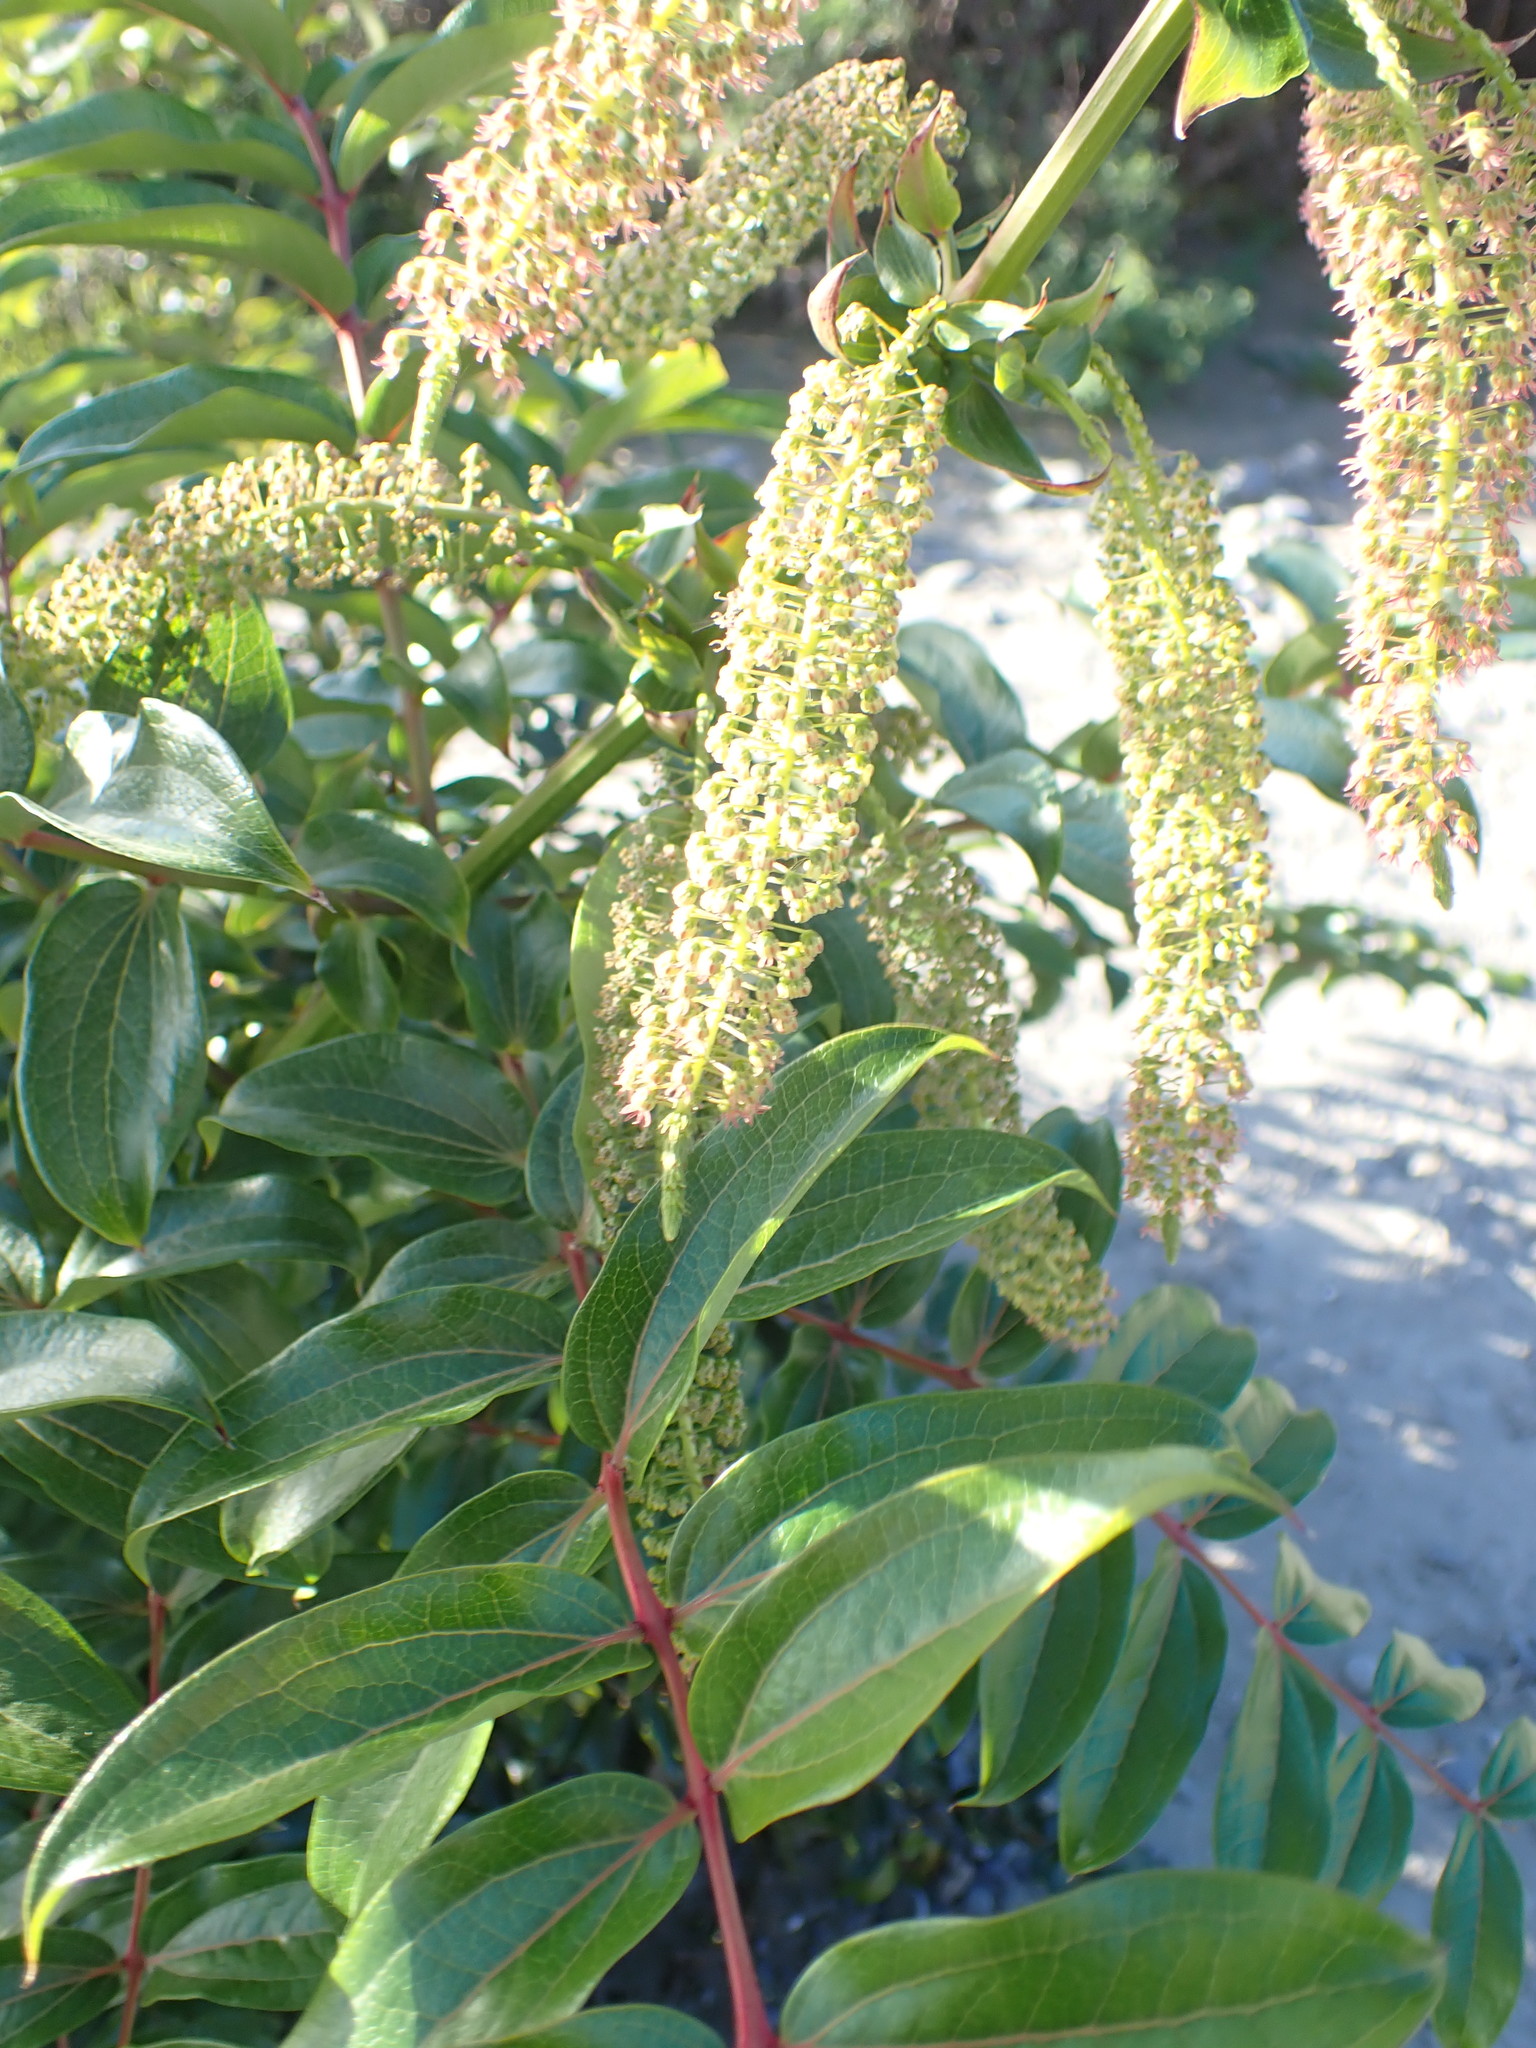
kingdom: Plantae
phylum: Tracheophyta
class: Magnoliopsida
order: Cucurbitales
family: Coriariaceae
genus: Coriaria
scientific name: Coriaria arborea
